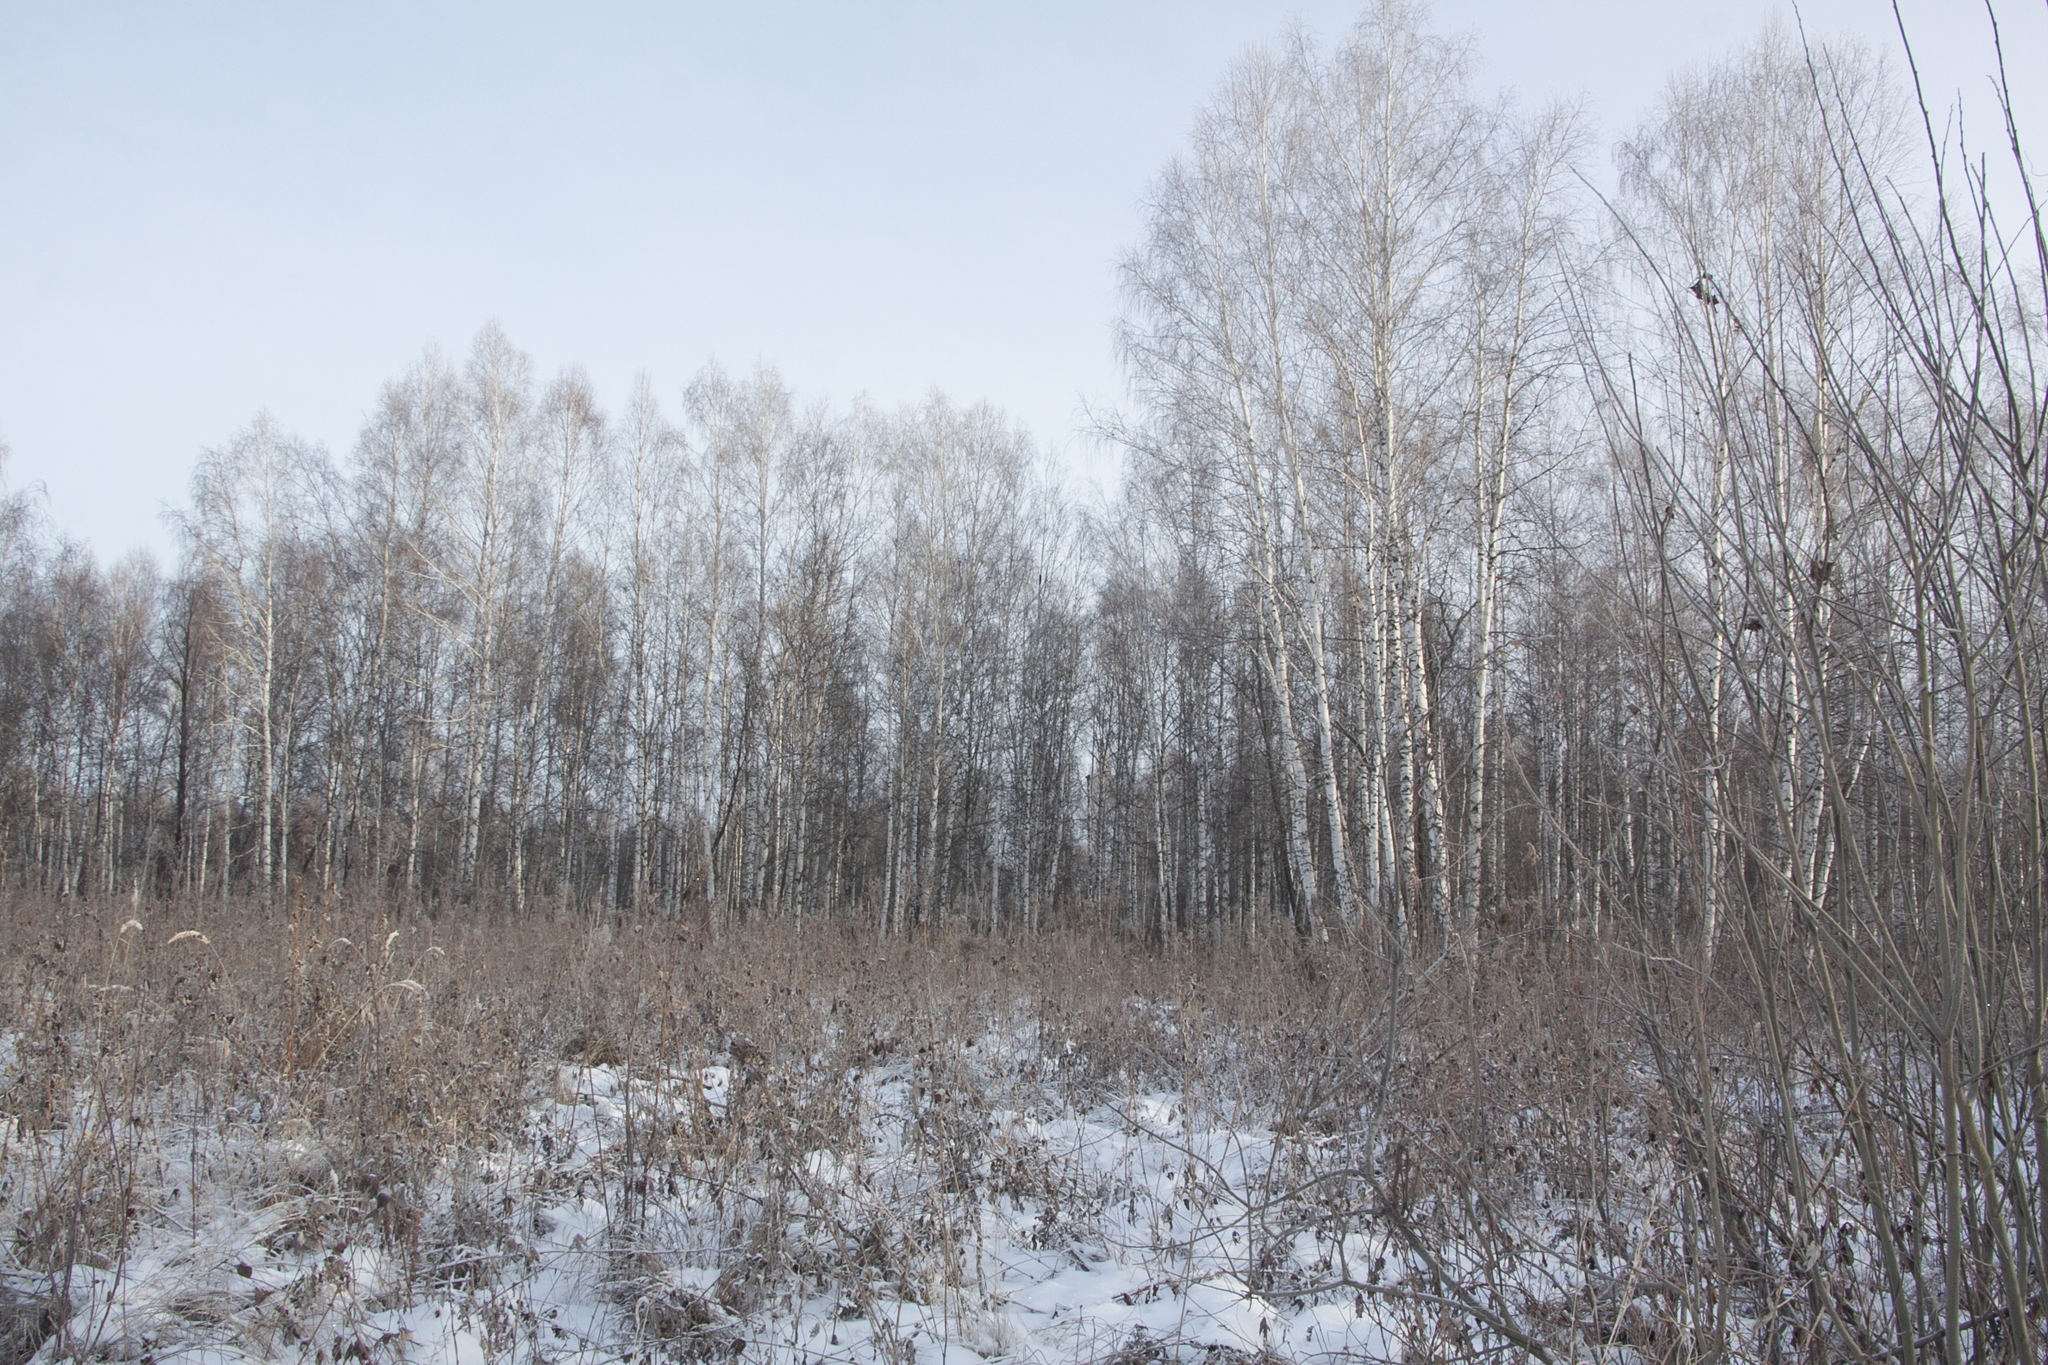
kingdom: Plantae
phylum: Tracheophyta
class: Magnoliopsida
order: Fagales
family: Betulaceae
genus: Betula
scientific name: Betula pendula
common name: Silver birch
